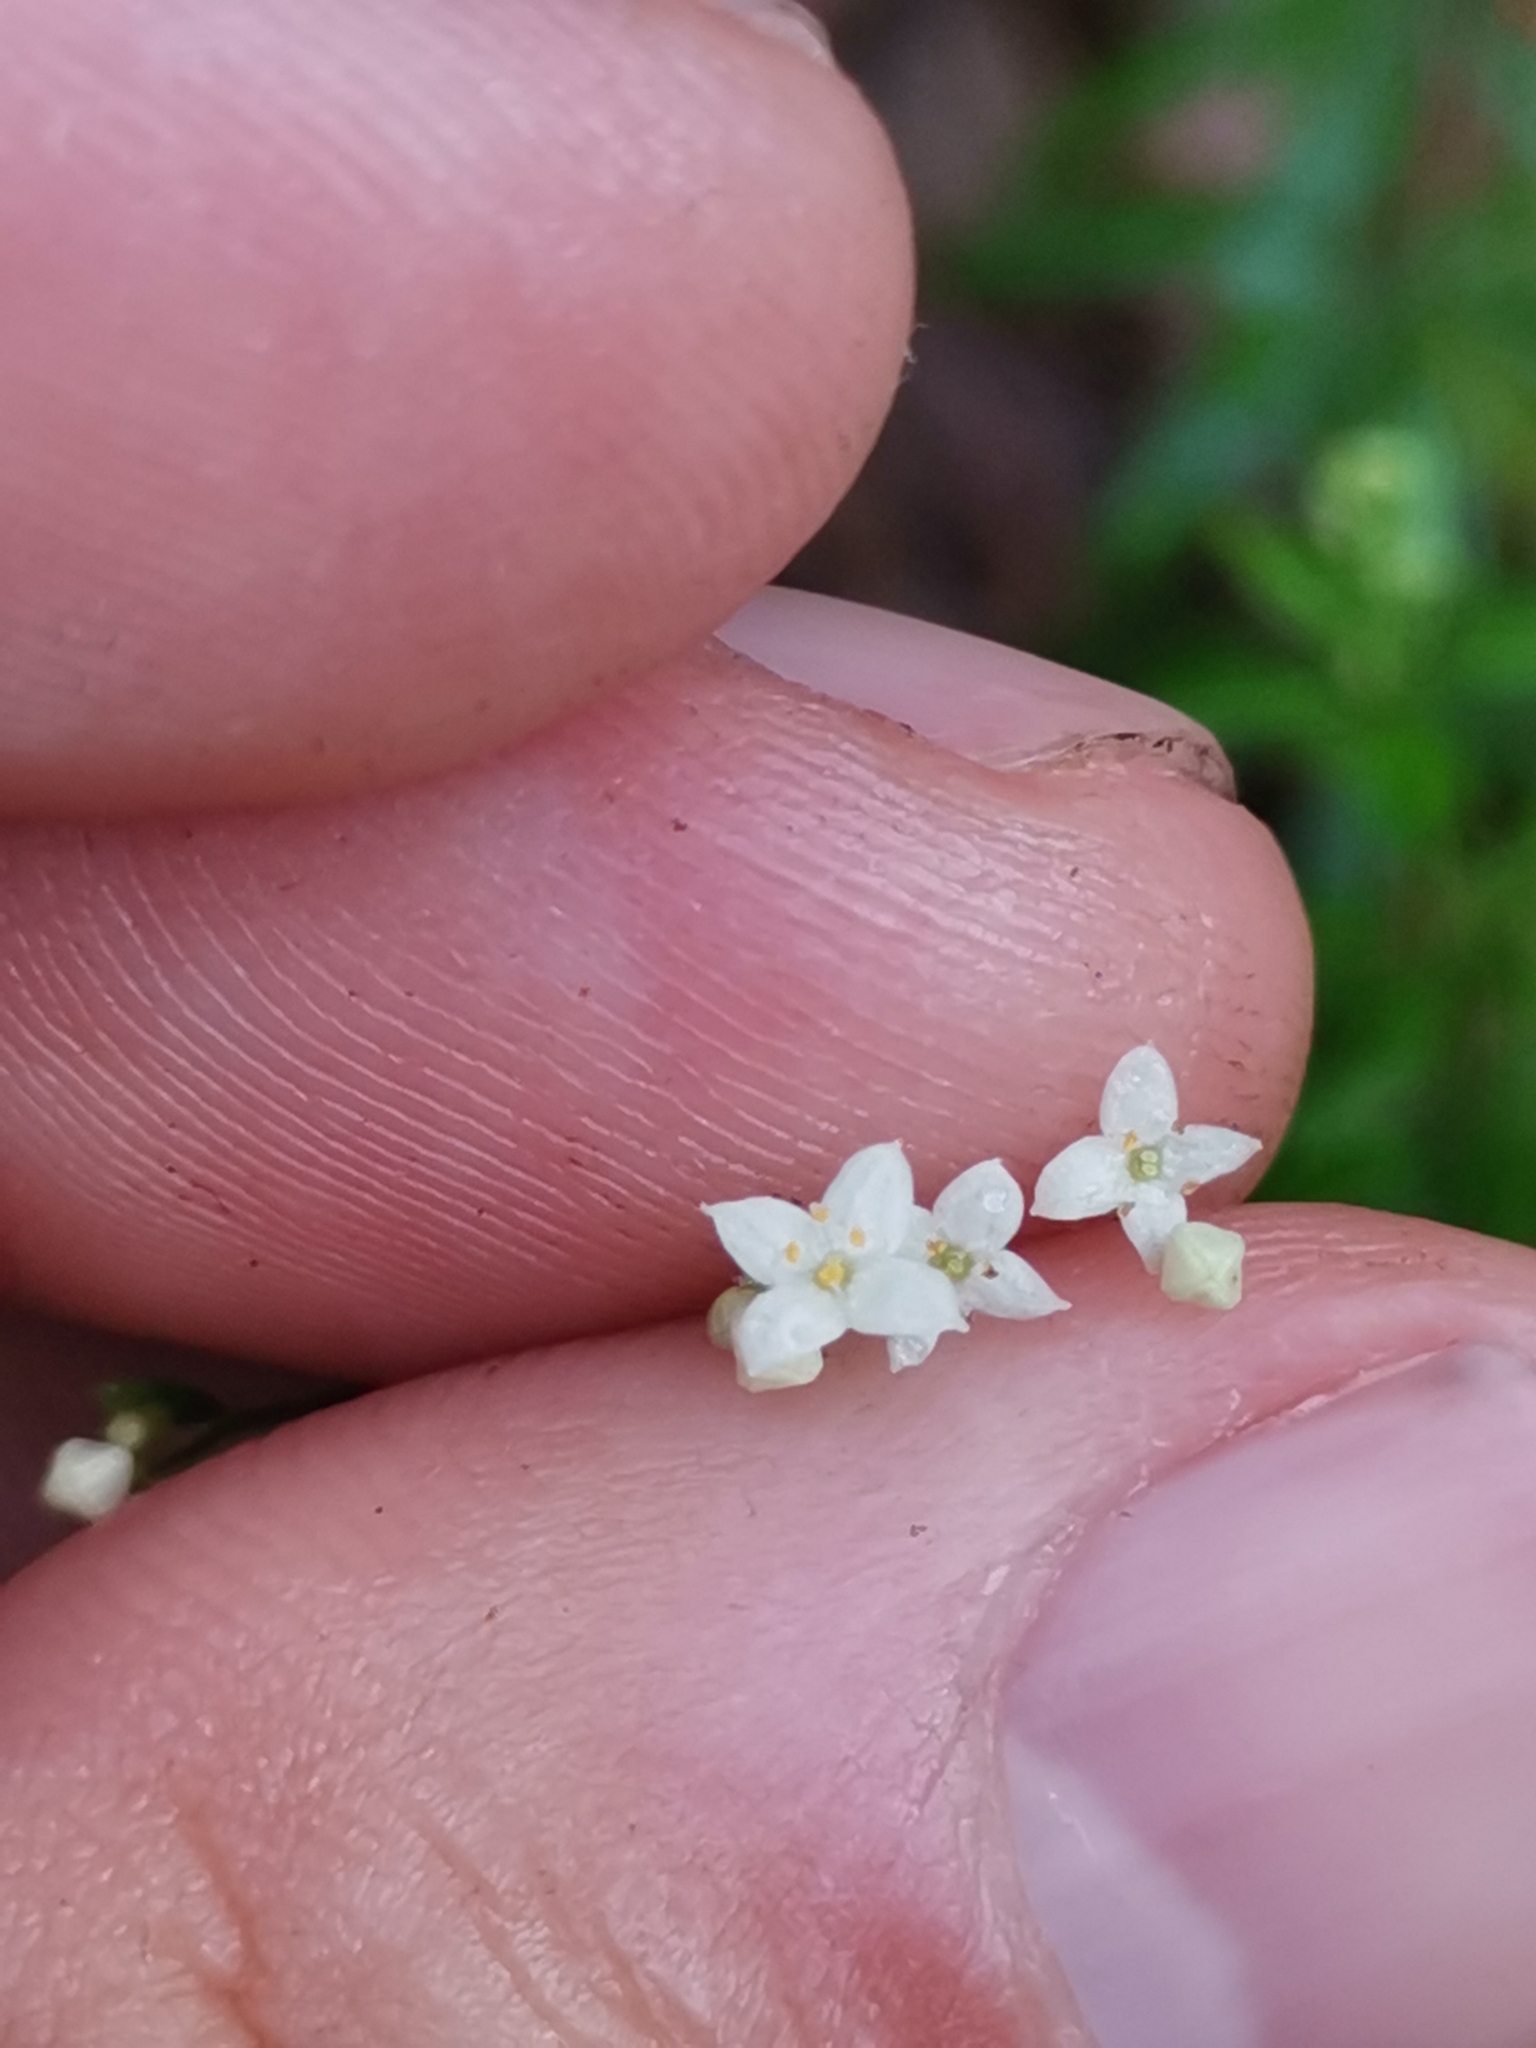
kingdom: Plantae
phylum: Tracheophyta
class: Magnoliopsida
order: Gentianales
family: Rubiaceae
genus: Galium
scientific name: Galium intermedium
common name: Bedstraw
